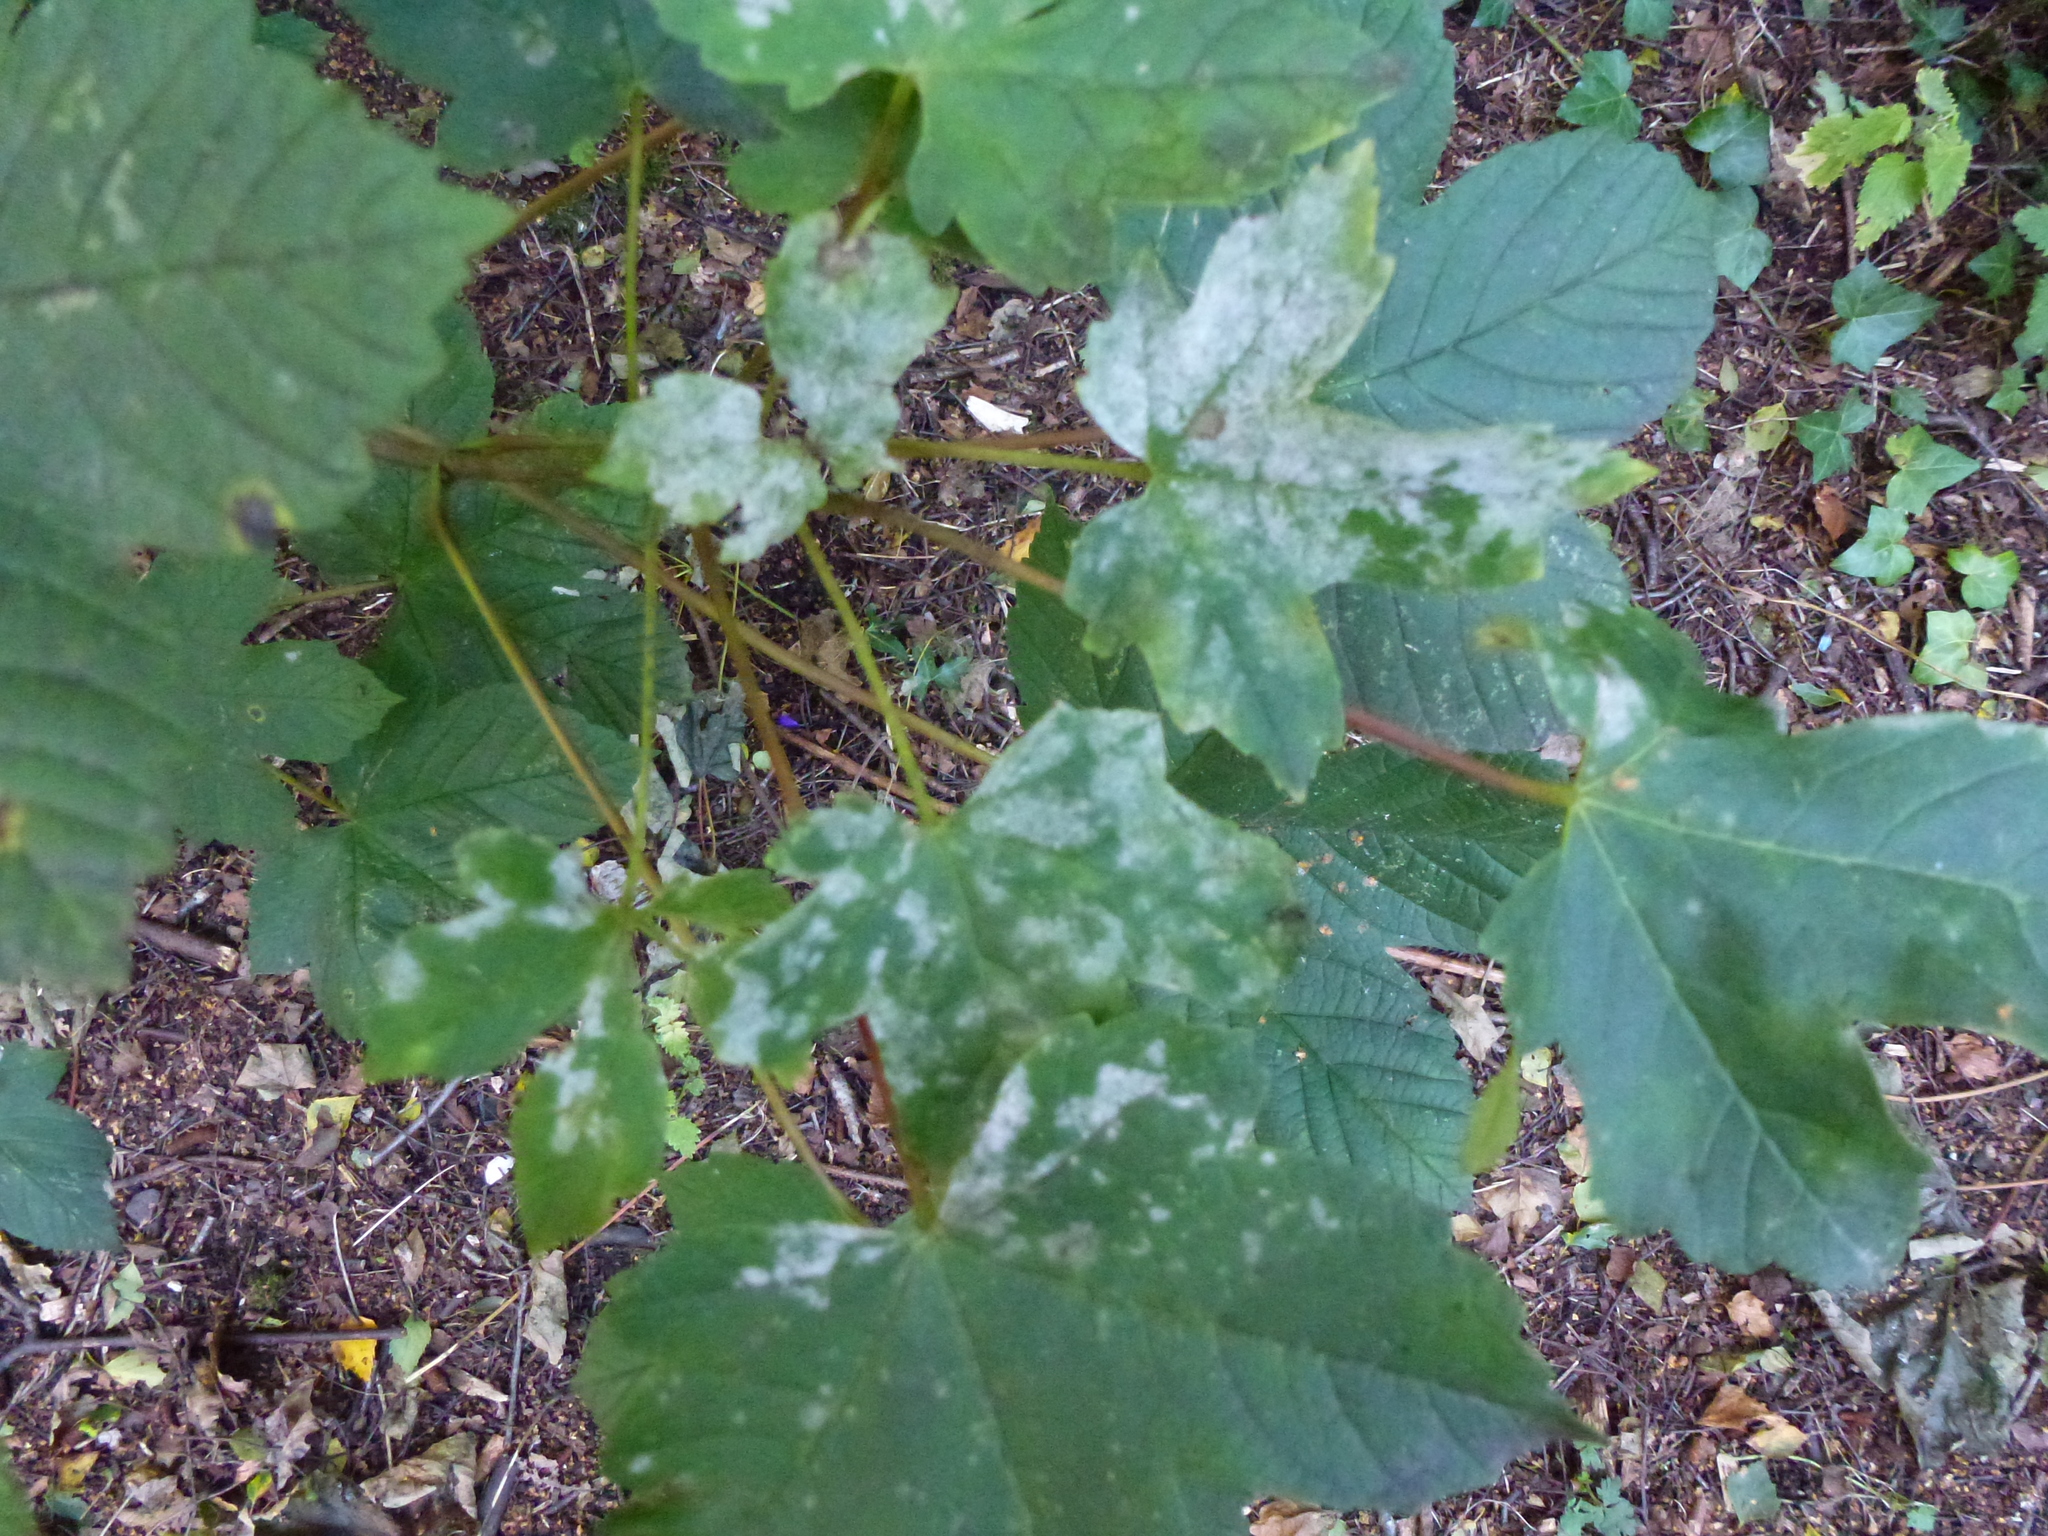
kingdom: Fungi
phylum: Ascomycota
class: Leotiomycetes
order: Helotiales
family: Erysiphaceae
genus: Sawadaea
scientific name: Sawadaea bicornis
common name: Maple mildew
